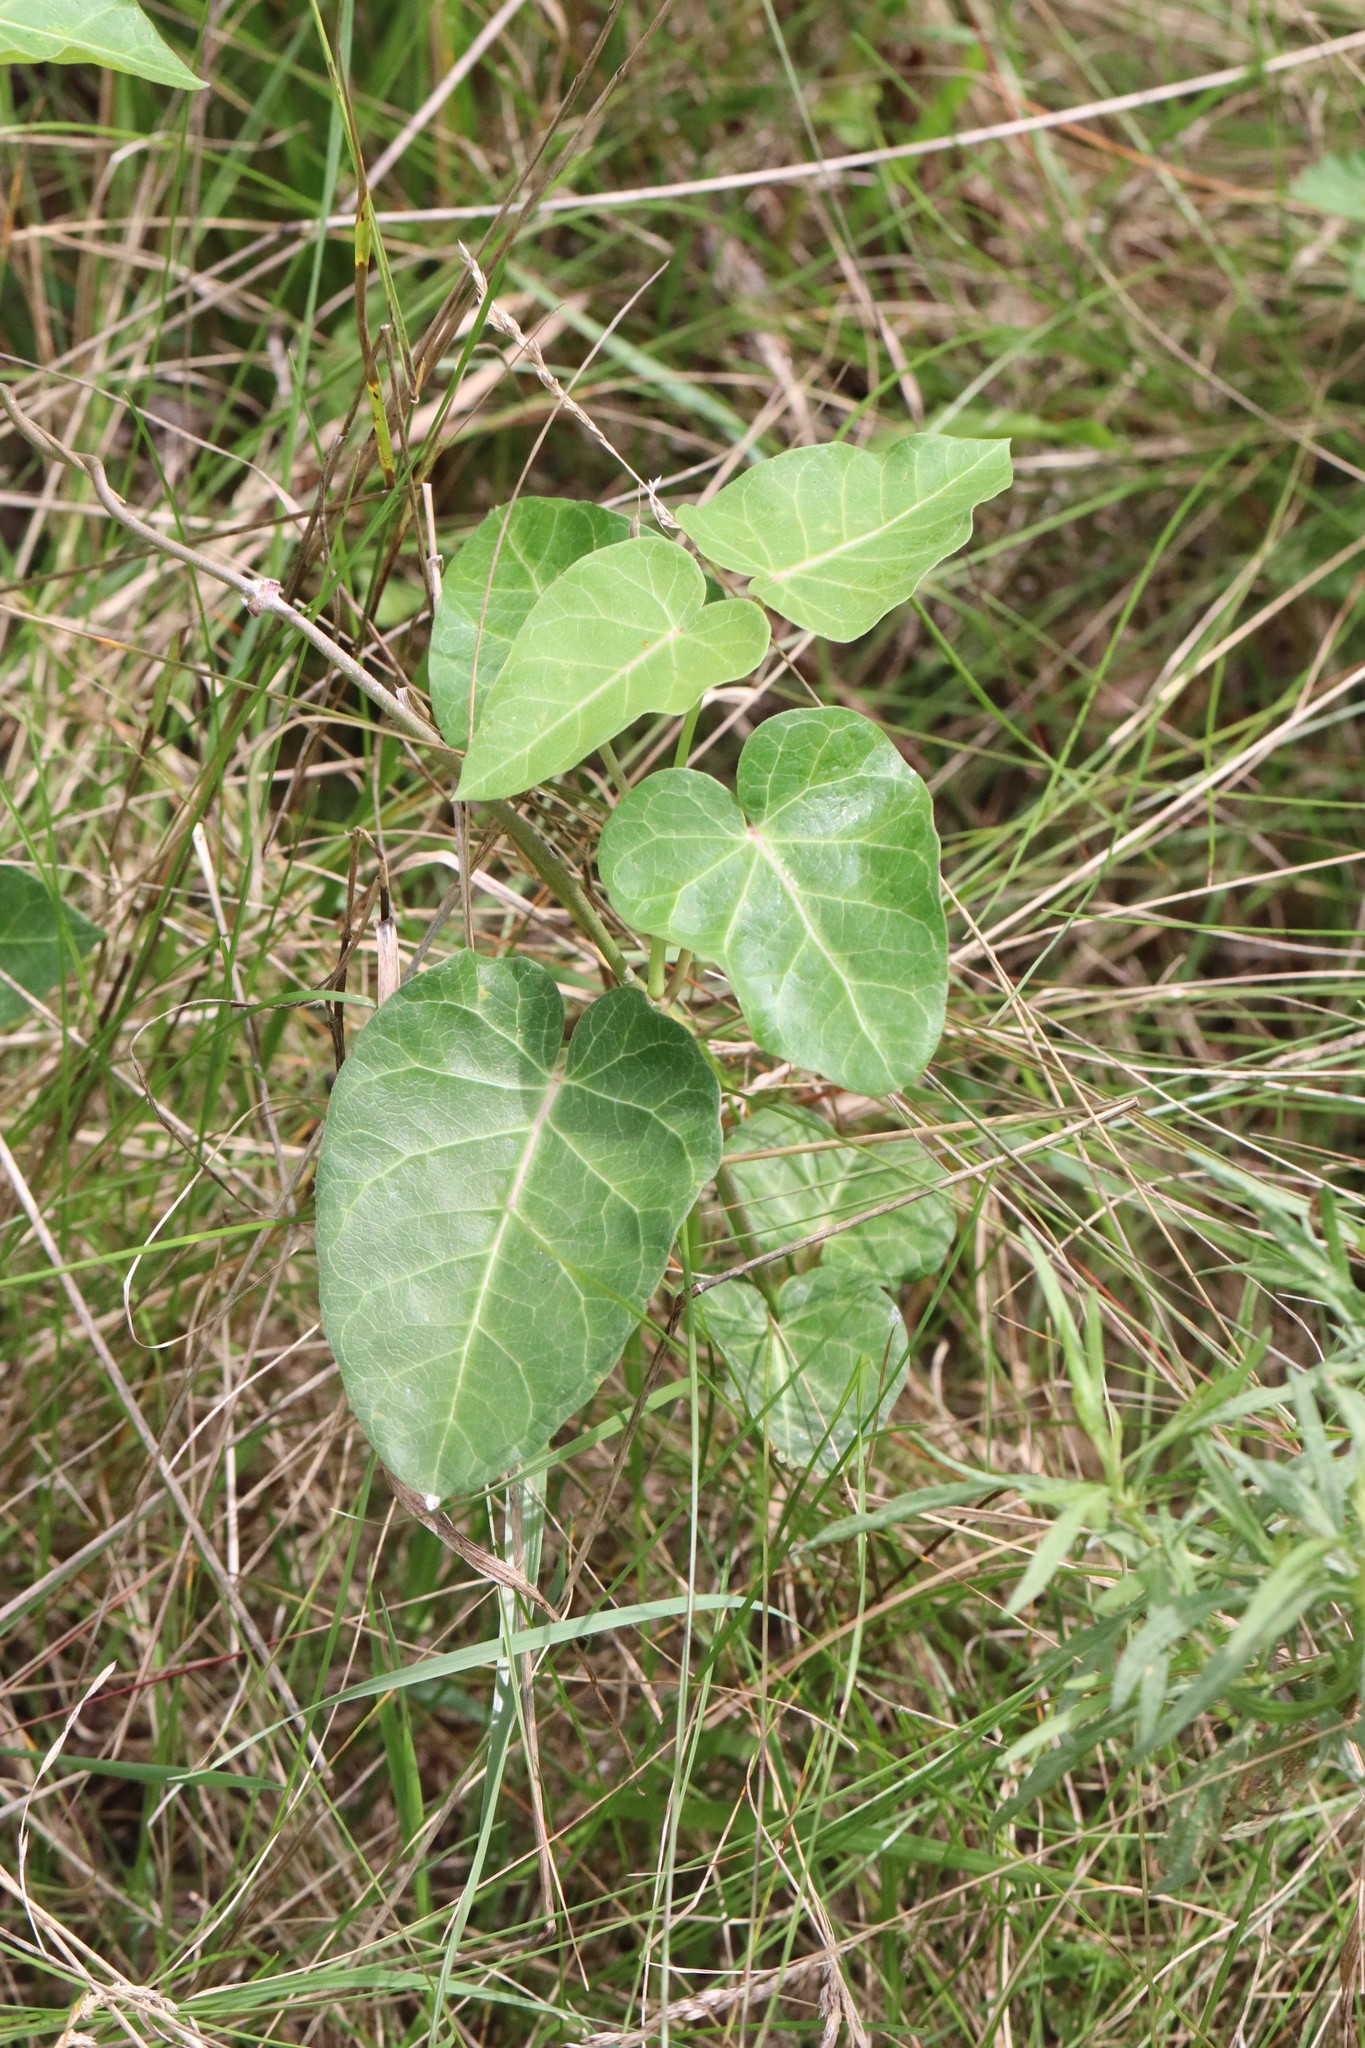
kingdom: Plantae
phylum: Tracheophyta
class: Magnoliopsida
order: Gentianales
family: Apocynaceae
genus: Cynanchum
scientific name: Cynanchum rostellatum
